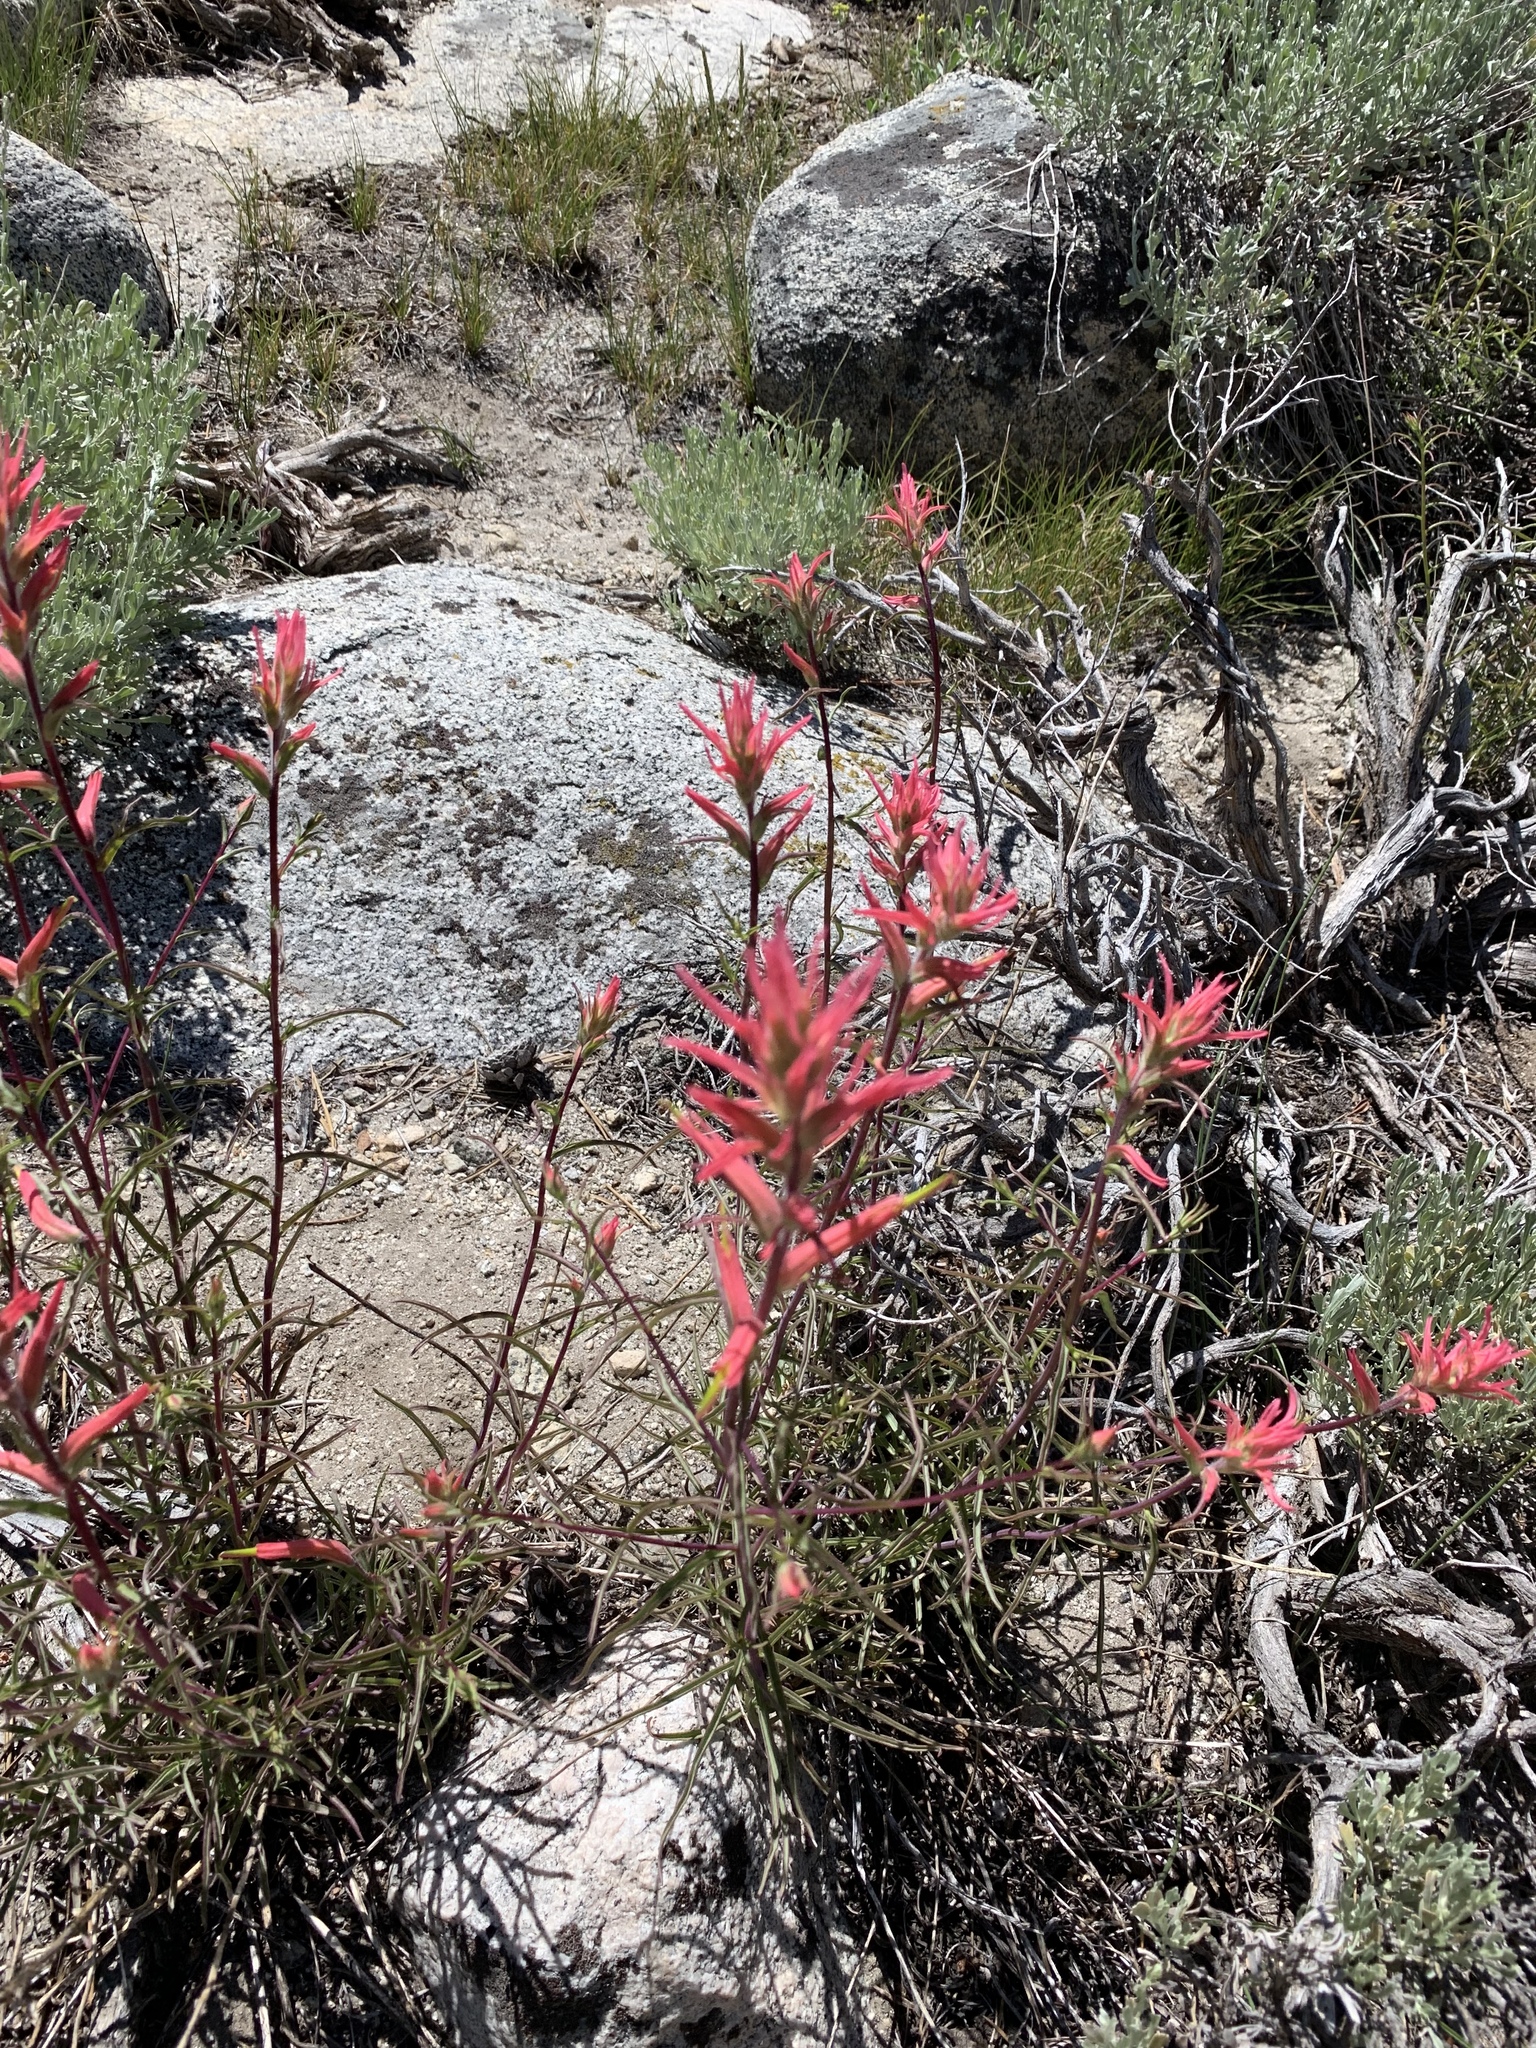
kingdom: Plantae
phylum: Tracheophyta
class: Magnoliopsida
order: Lamiales
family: Orobanchaceae
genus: Castilleja
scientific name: Castilleja linariifolia
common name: Wyoming paintbrush
